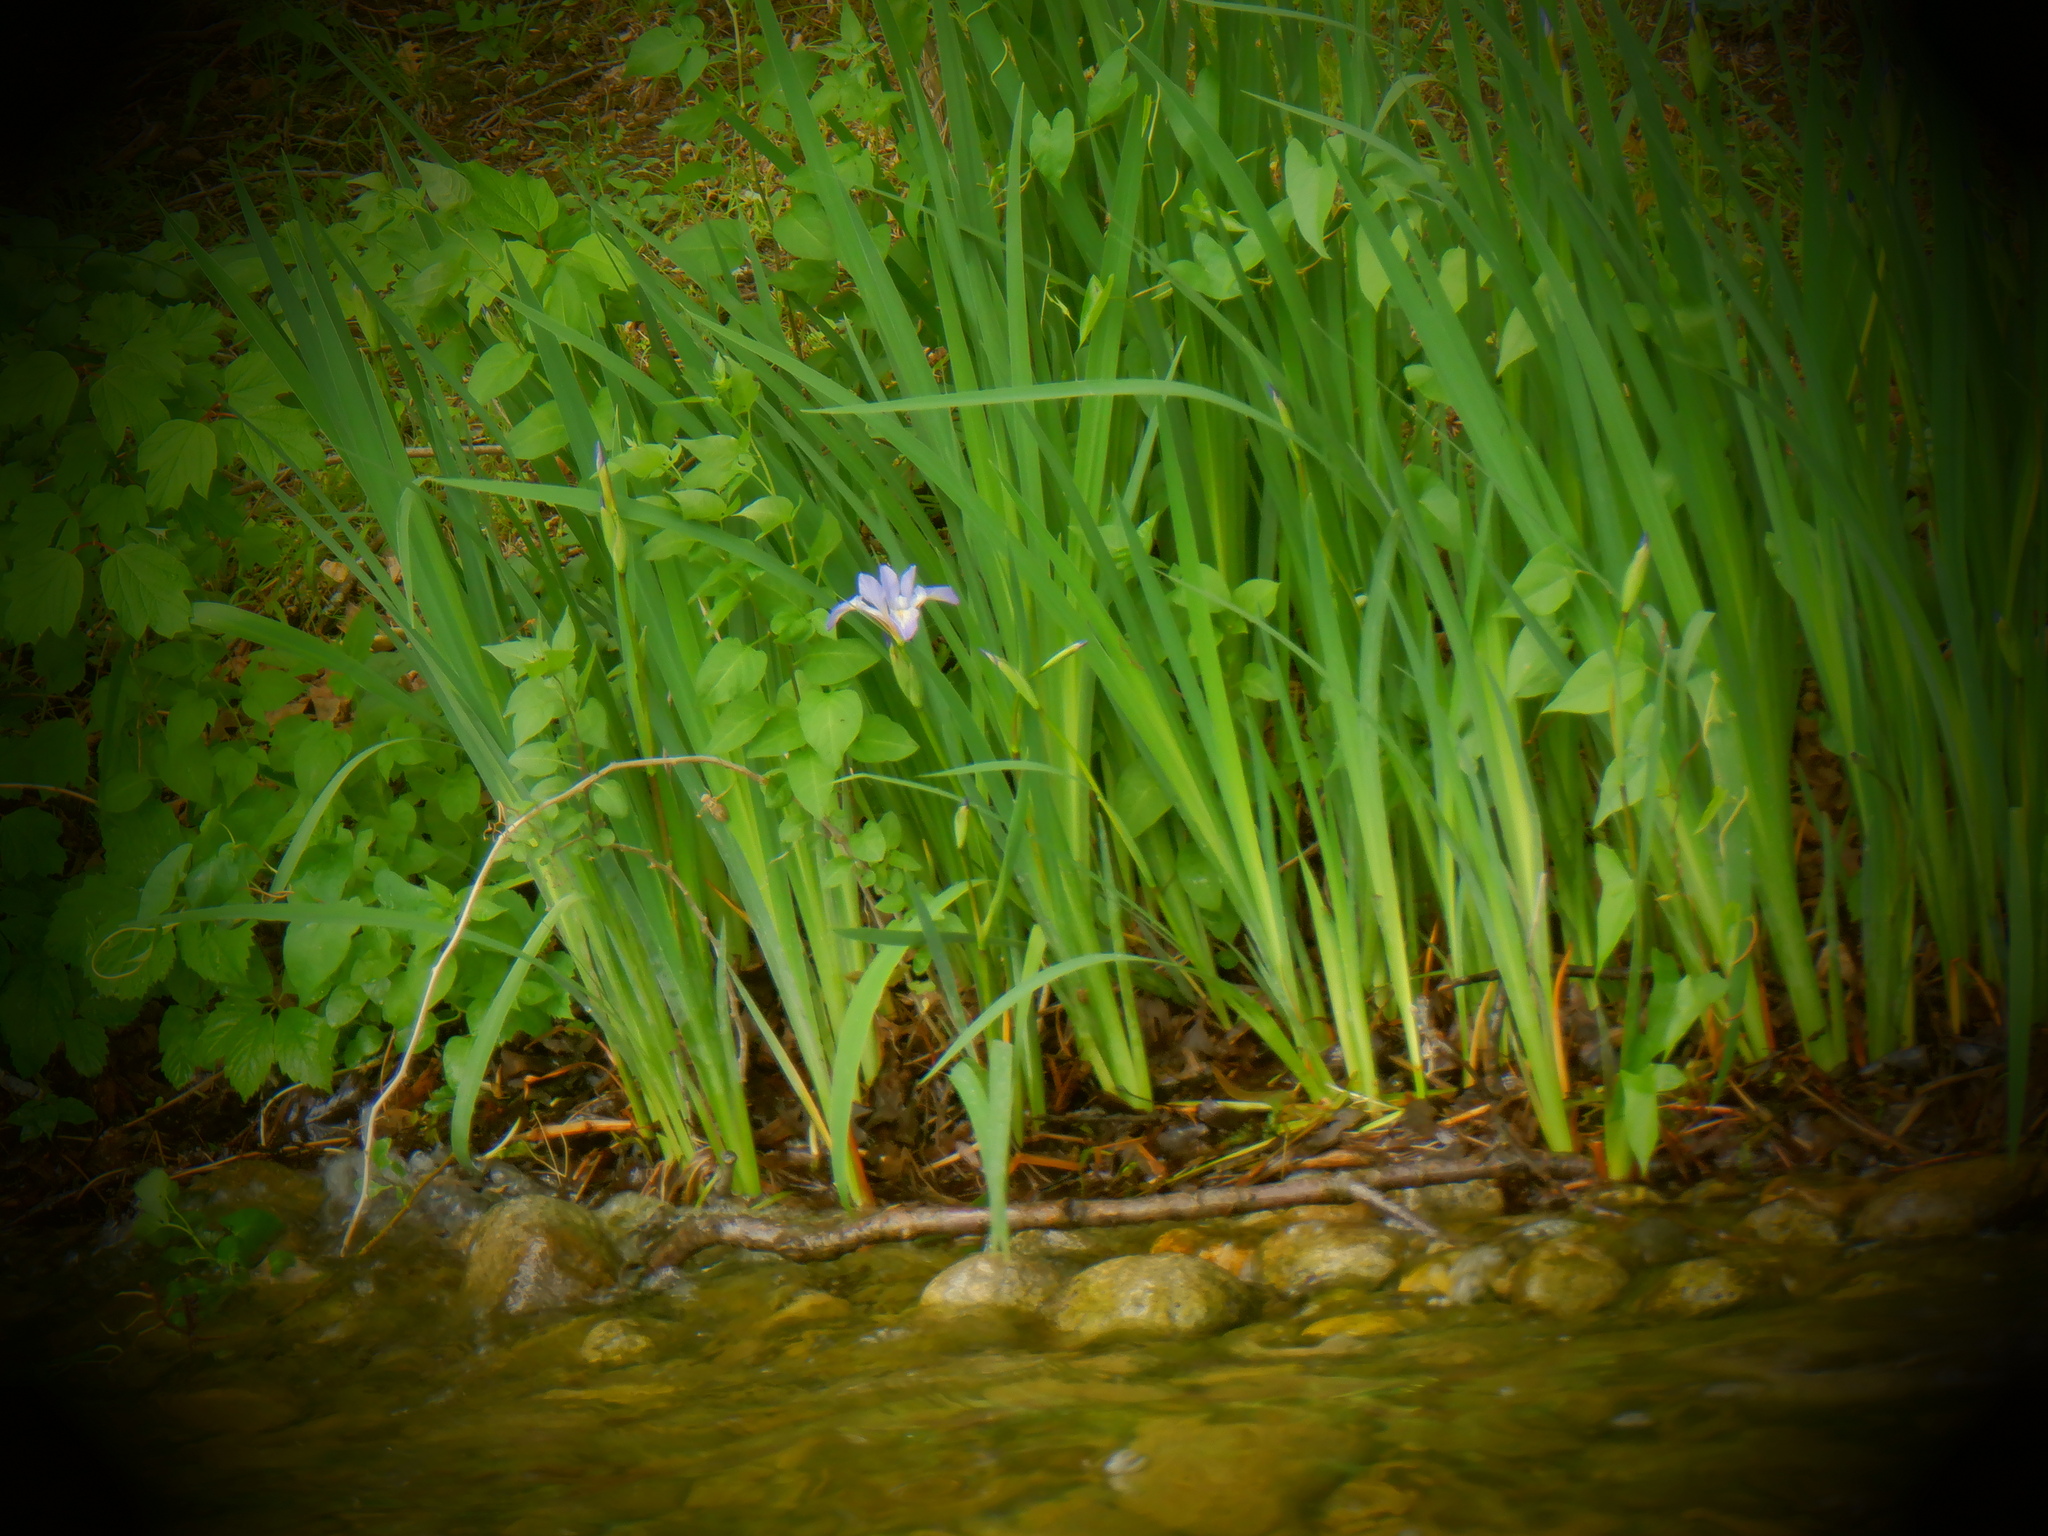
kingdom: Plantae
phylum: Tracheophyta
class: Liliopsida
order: Asparagales
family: Iridaceae
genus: Iris
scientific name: Iris virginica
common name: Southern blue flag
